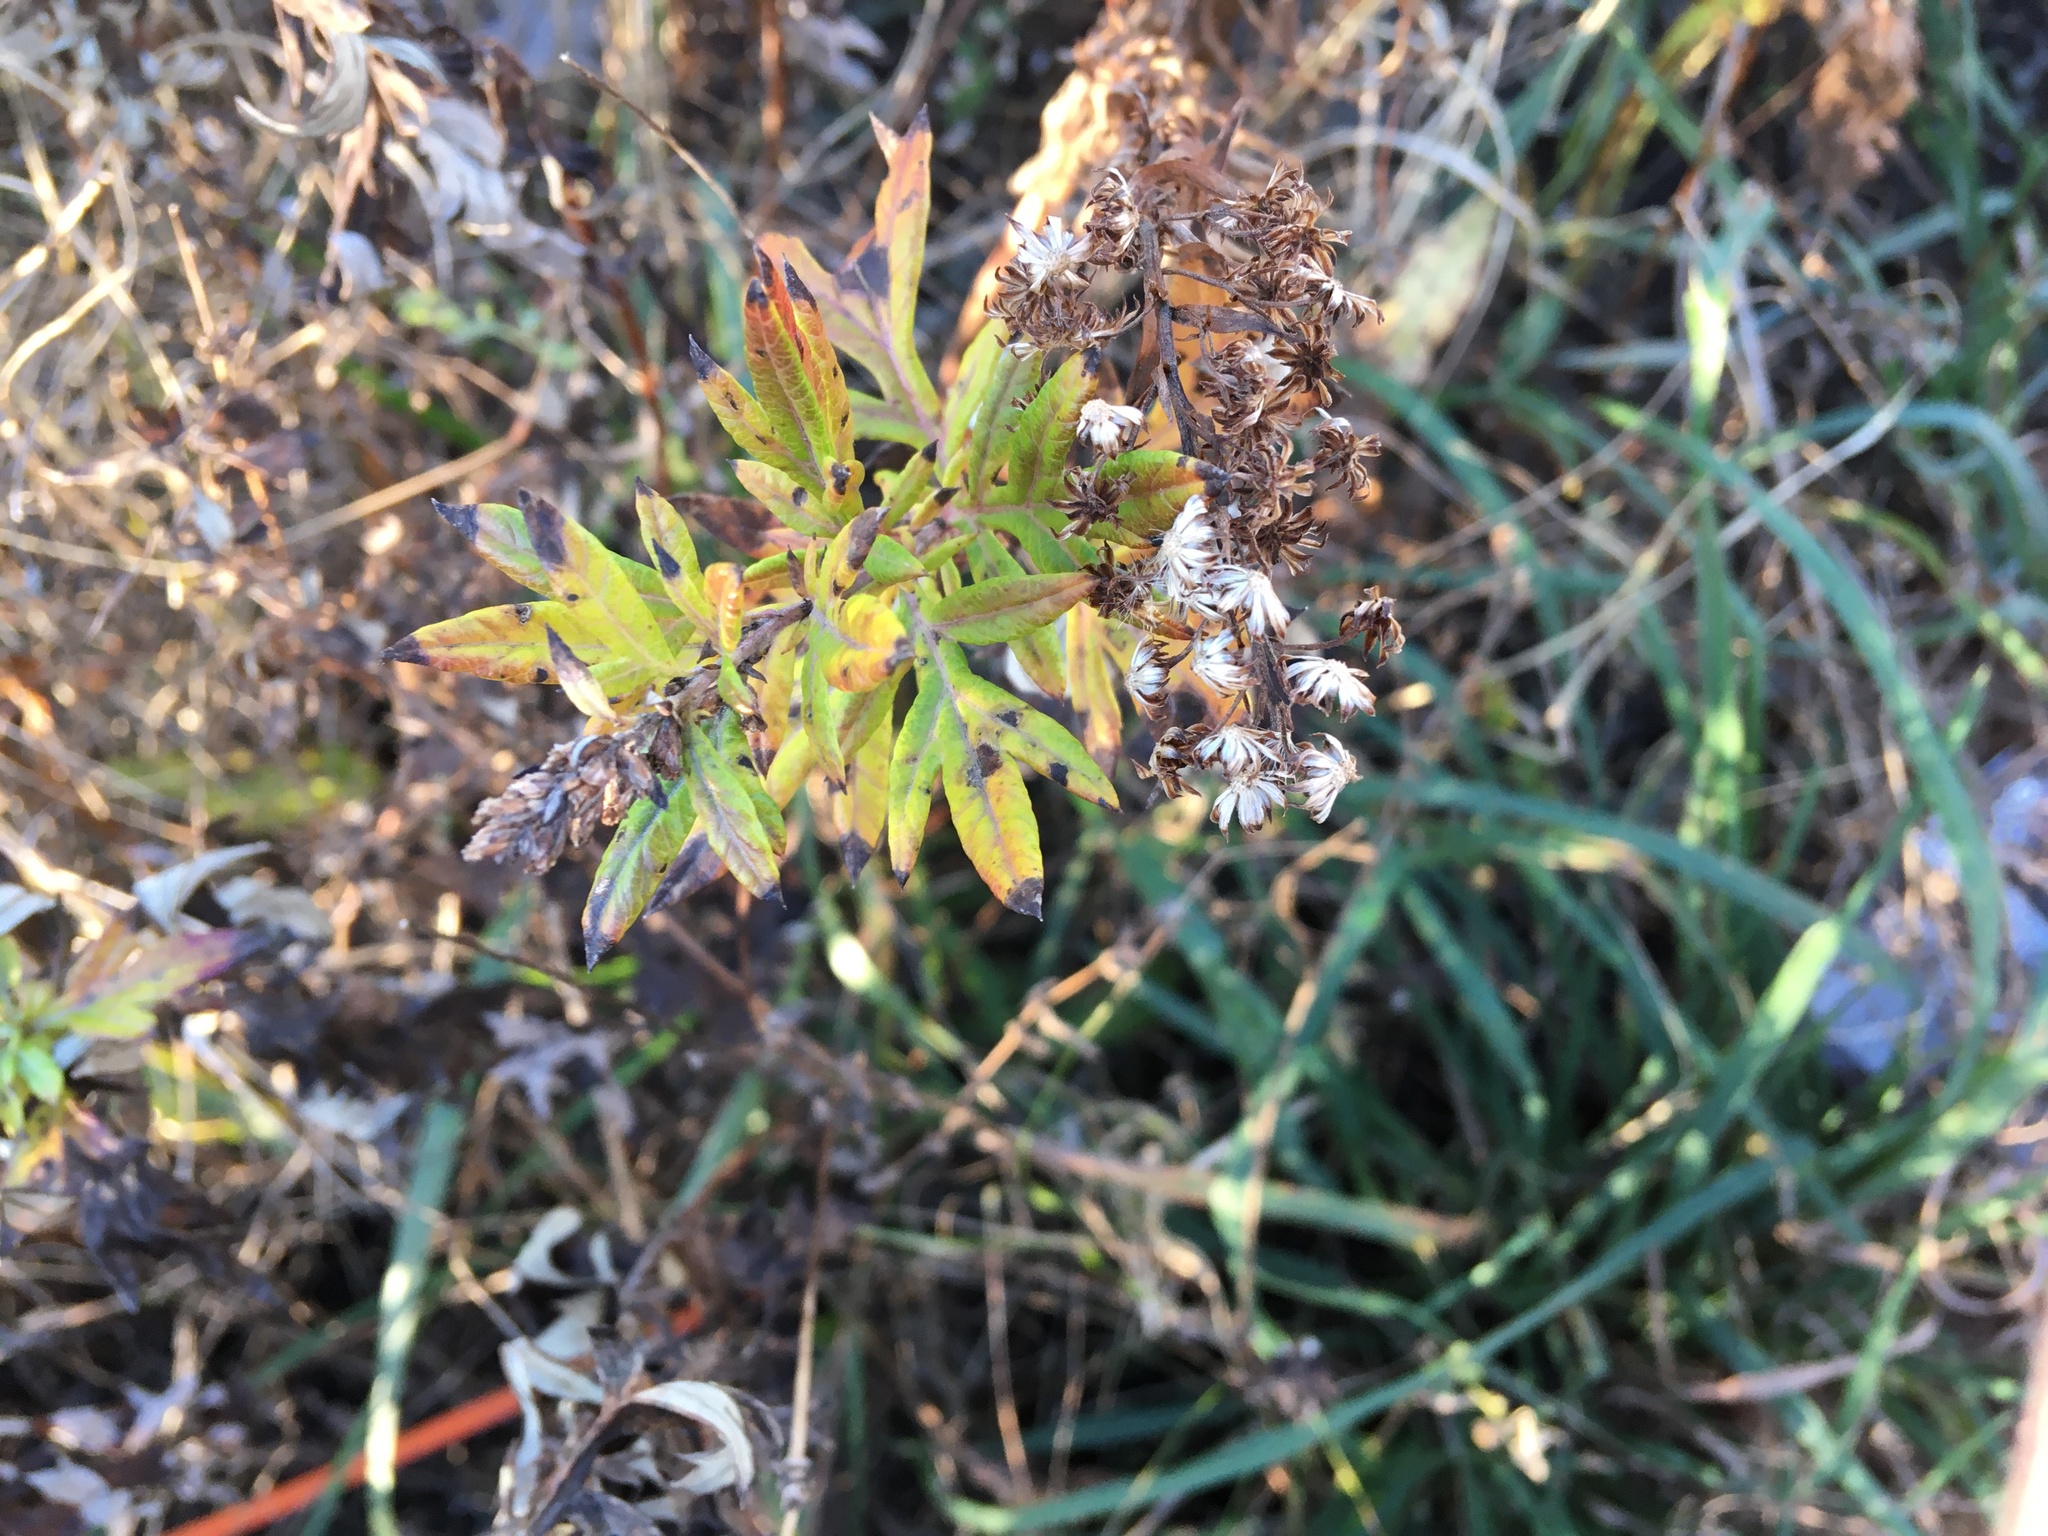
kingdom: Plantae
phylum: Tracheophyta
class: Magnoliopsida
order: Asterales
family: Asteraceae
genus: Artemisia
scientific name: Artemisia vulgaris
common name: Mugwort
